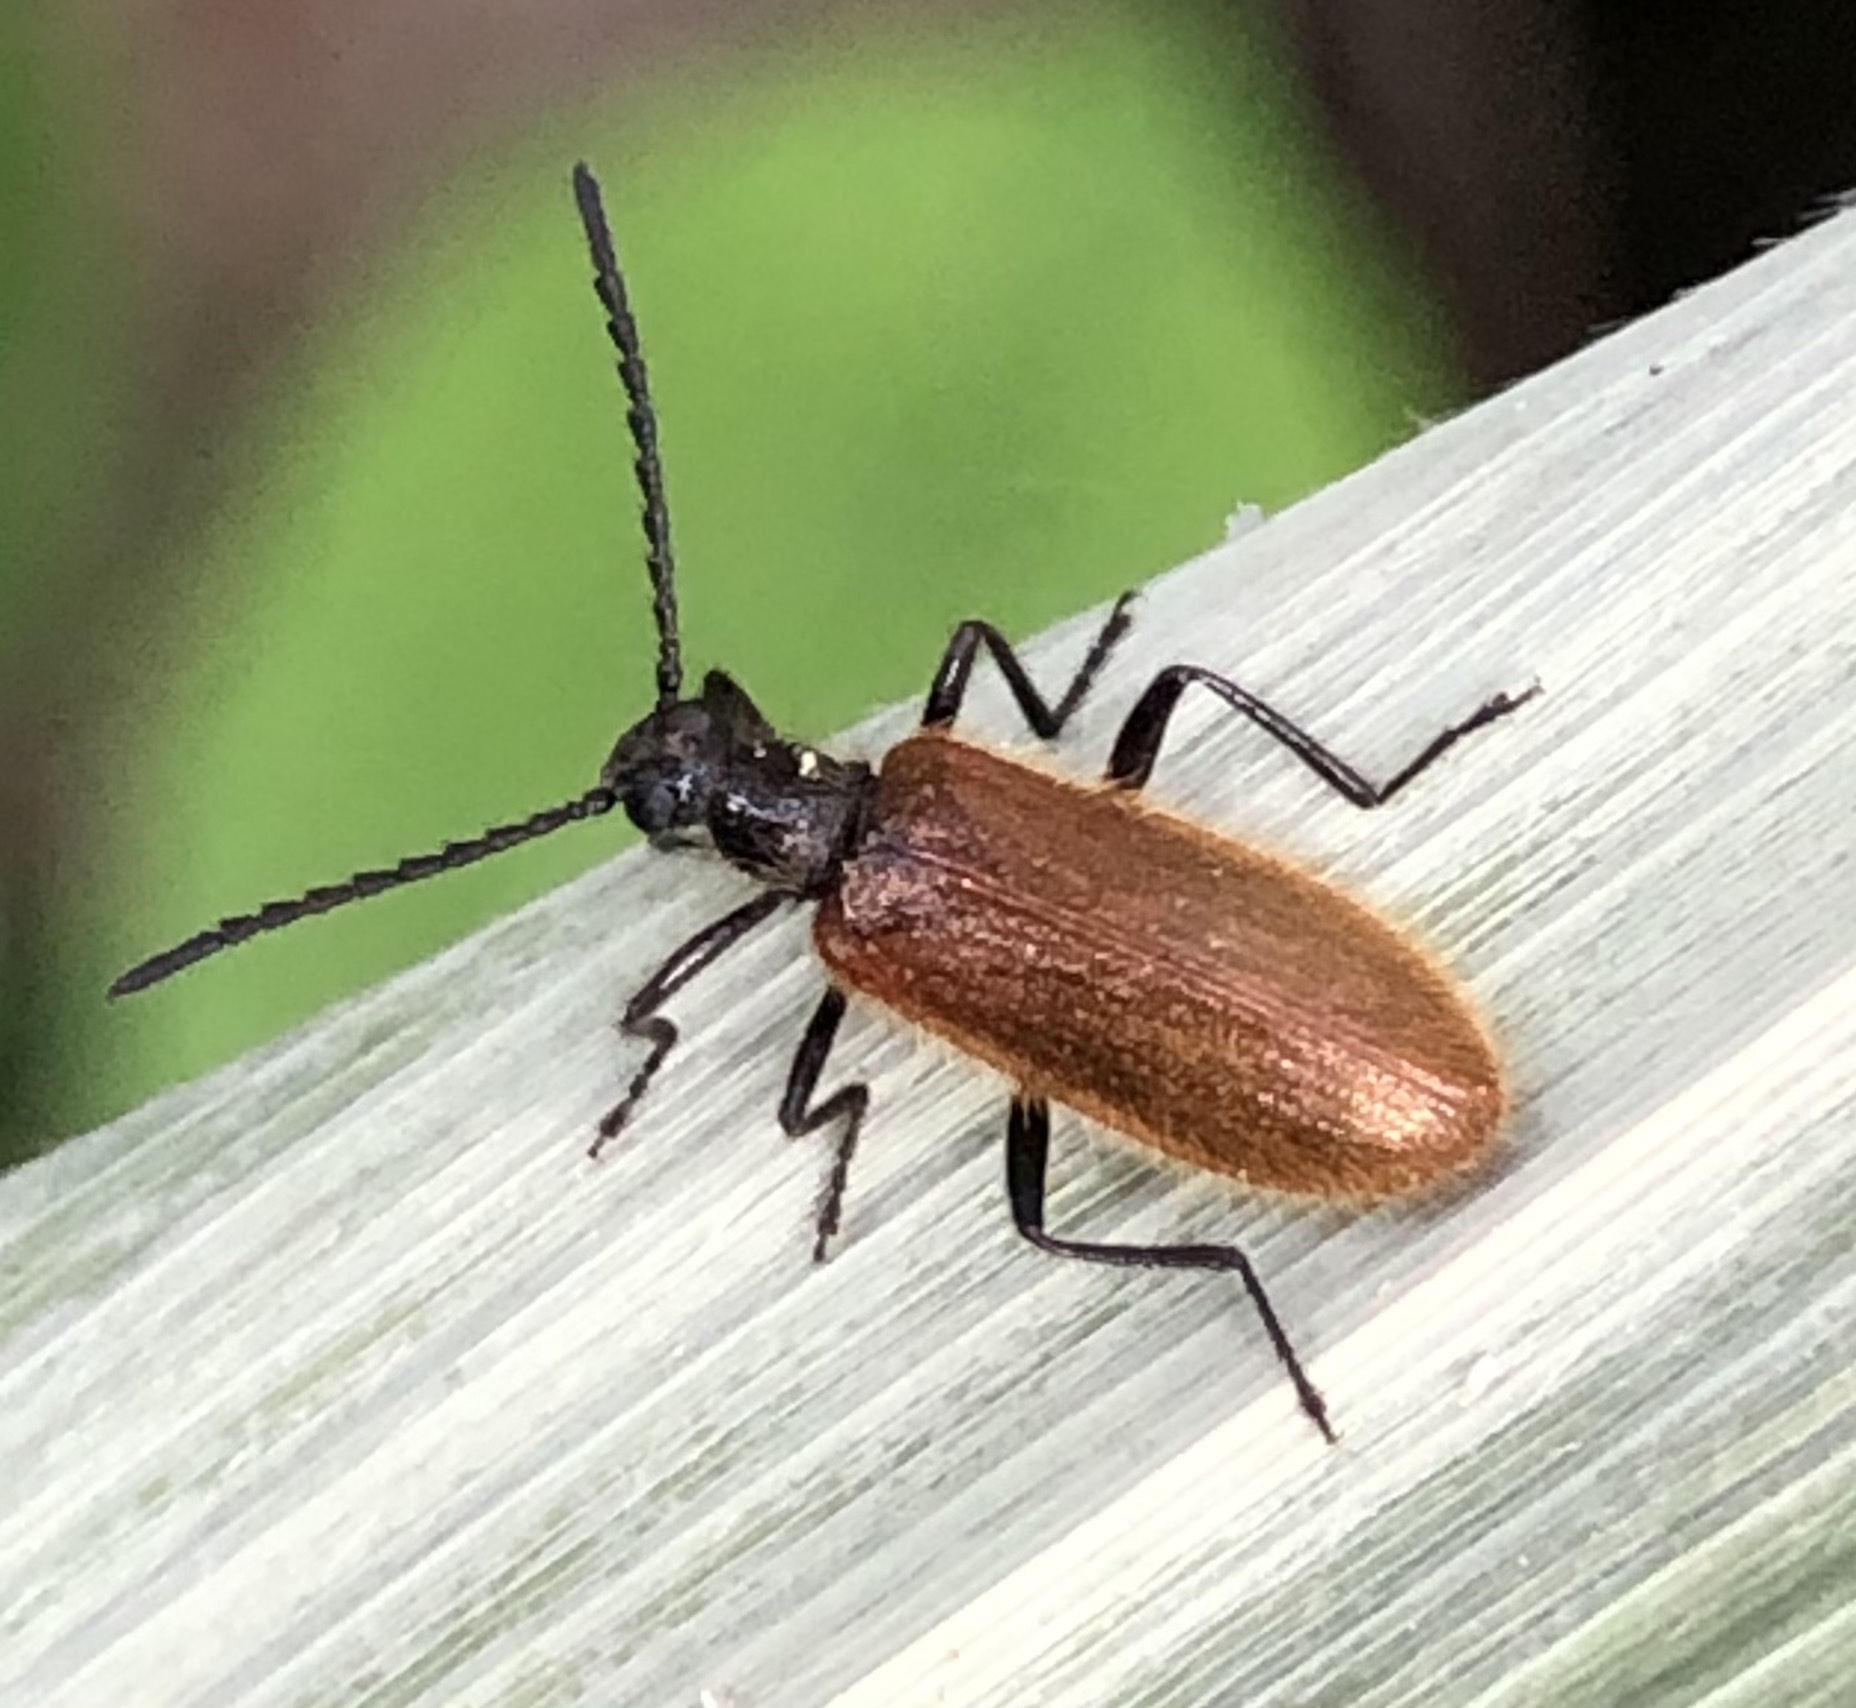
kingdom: Animalia
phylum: Arthropoda
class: Insecta
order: Coleoptera
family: Tenebrionidae
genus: Lagria
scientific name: Lagria hirta
